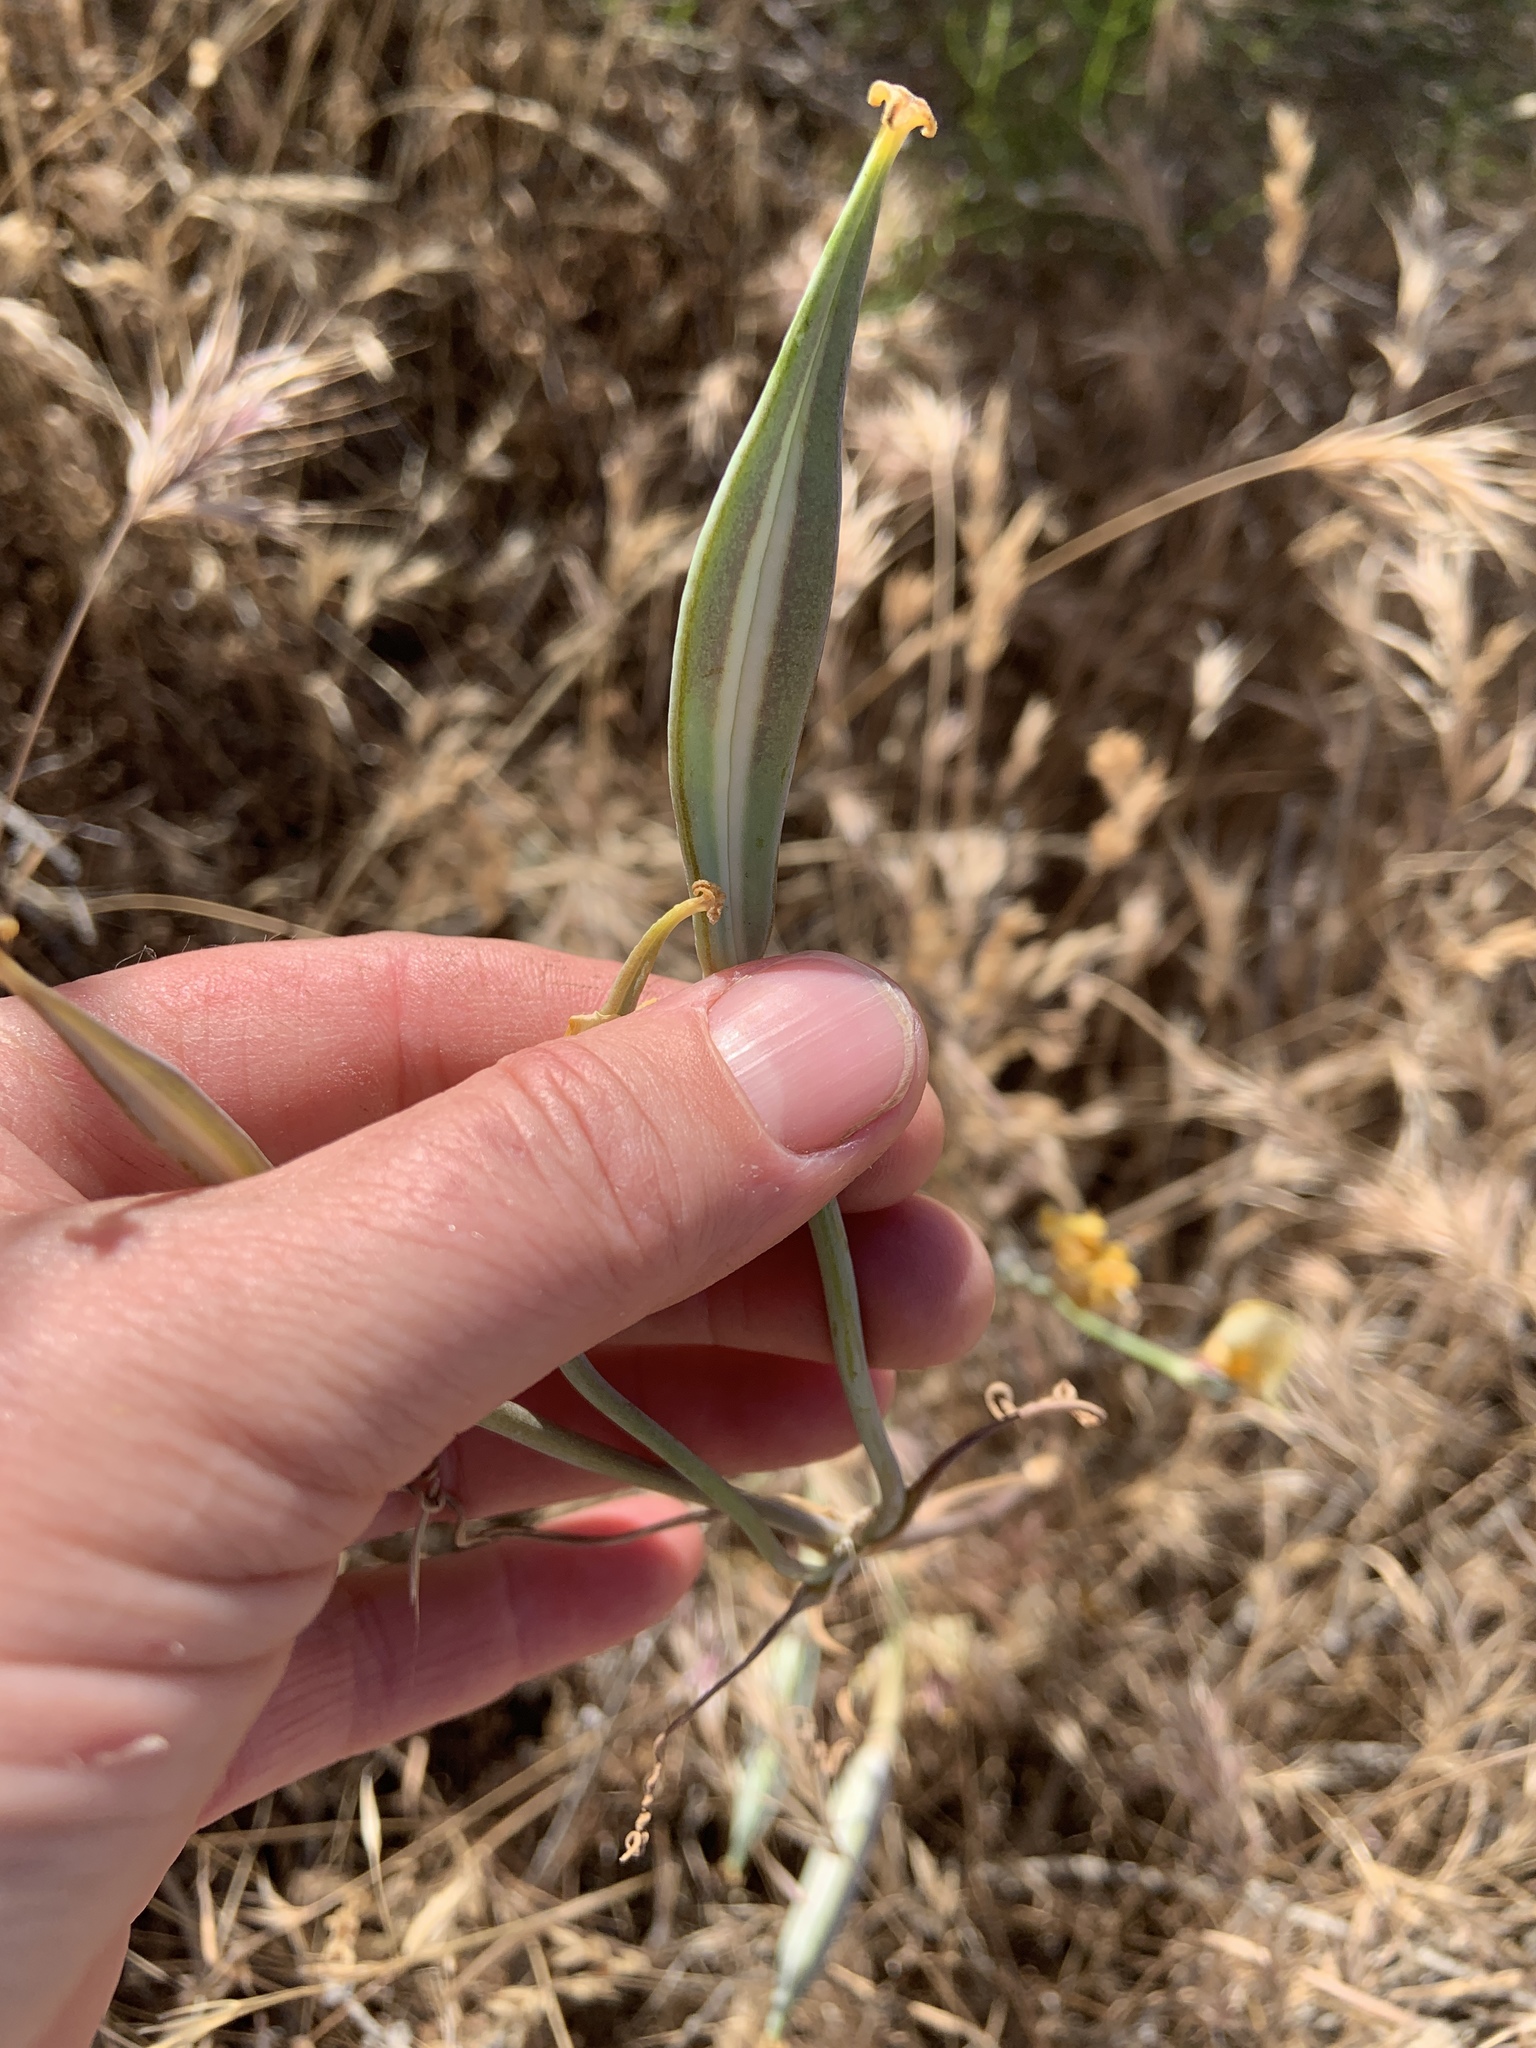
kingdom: Plantae
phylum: Tracheophyta
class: Liliopsida
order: Liliales
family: Liliaceae
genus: Calochortus
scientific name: Calochortus clavatus
